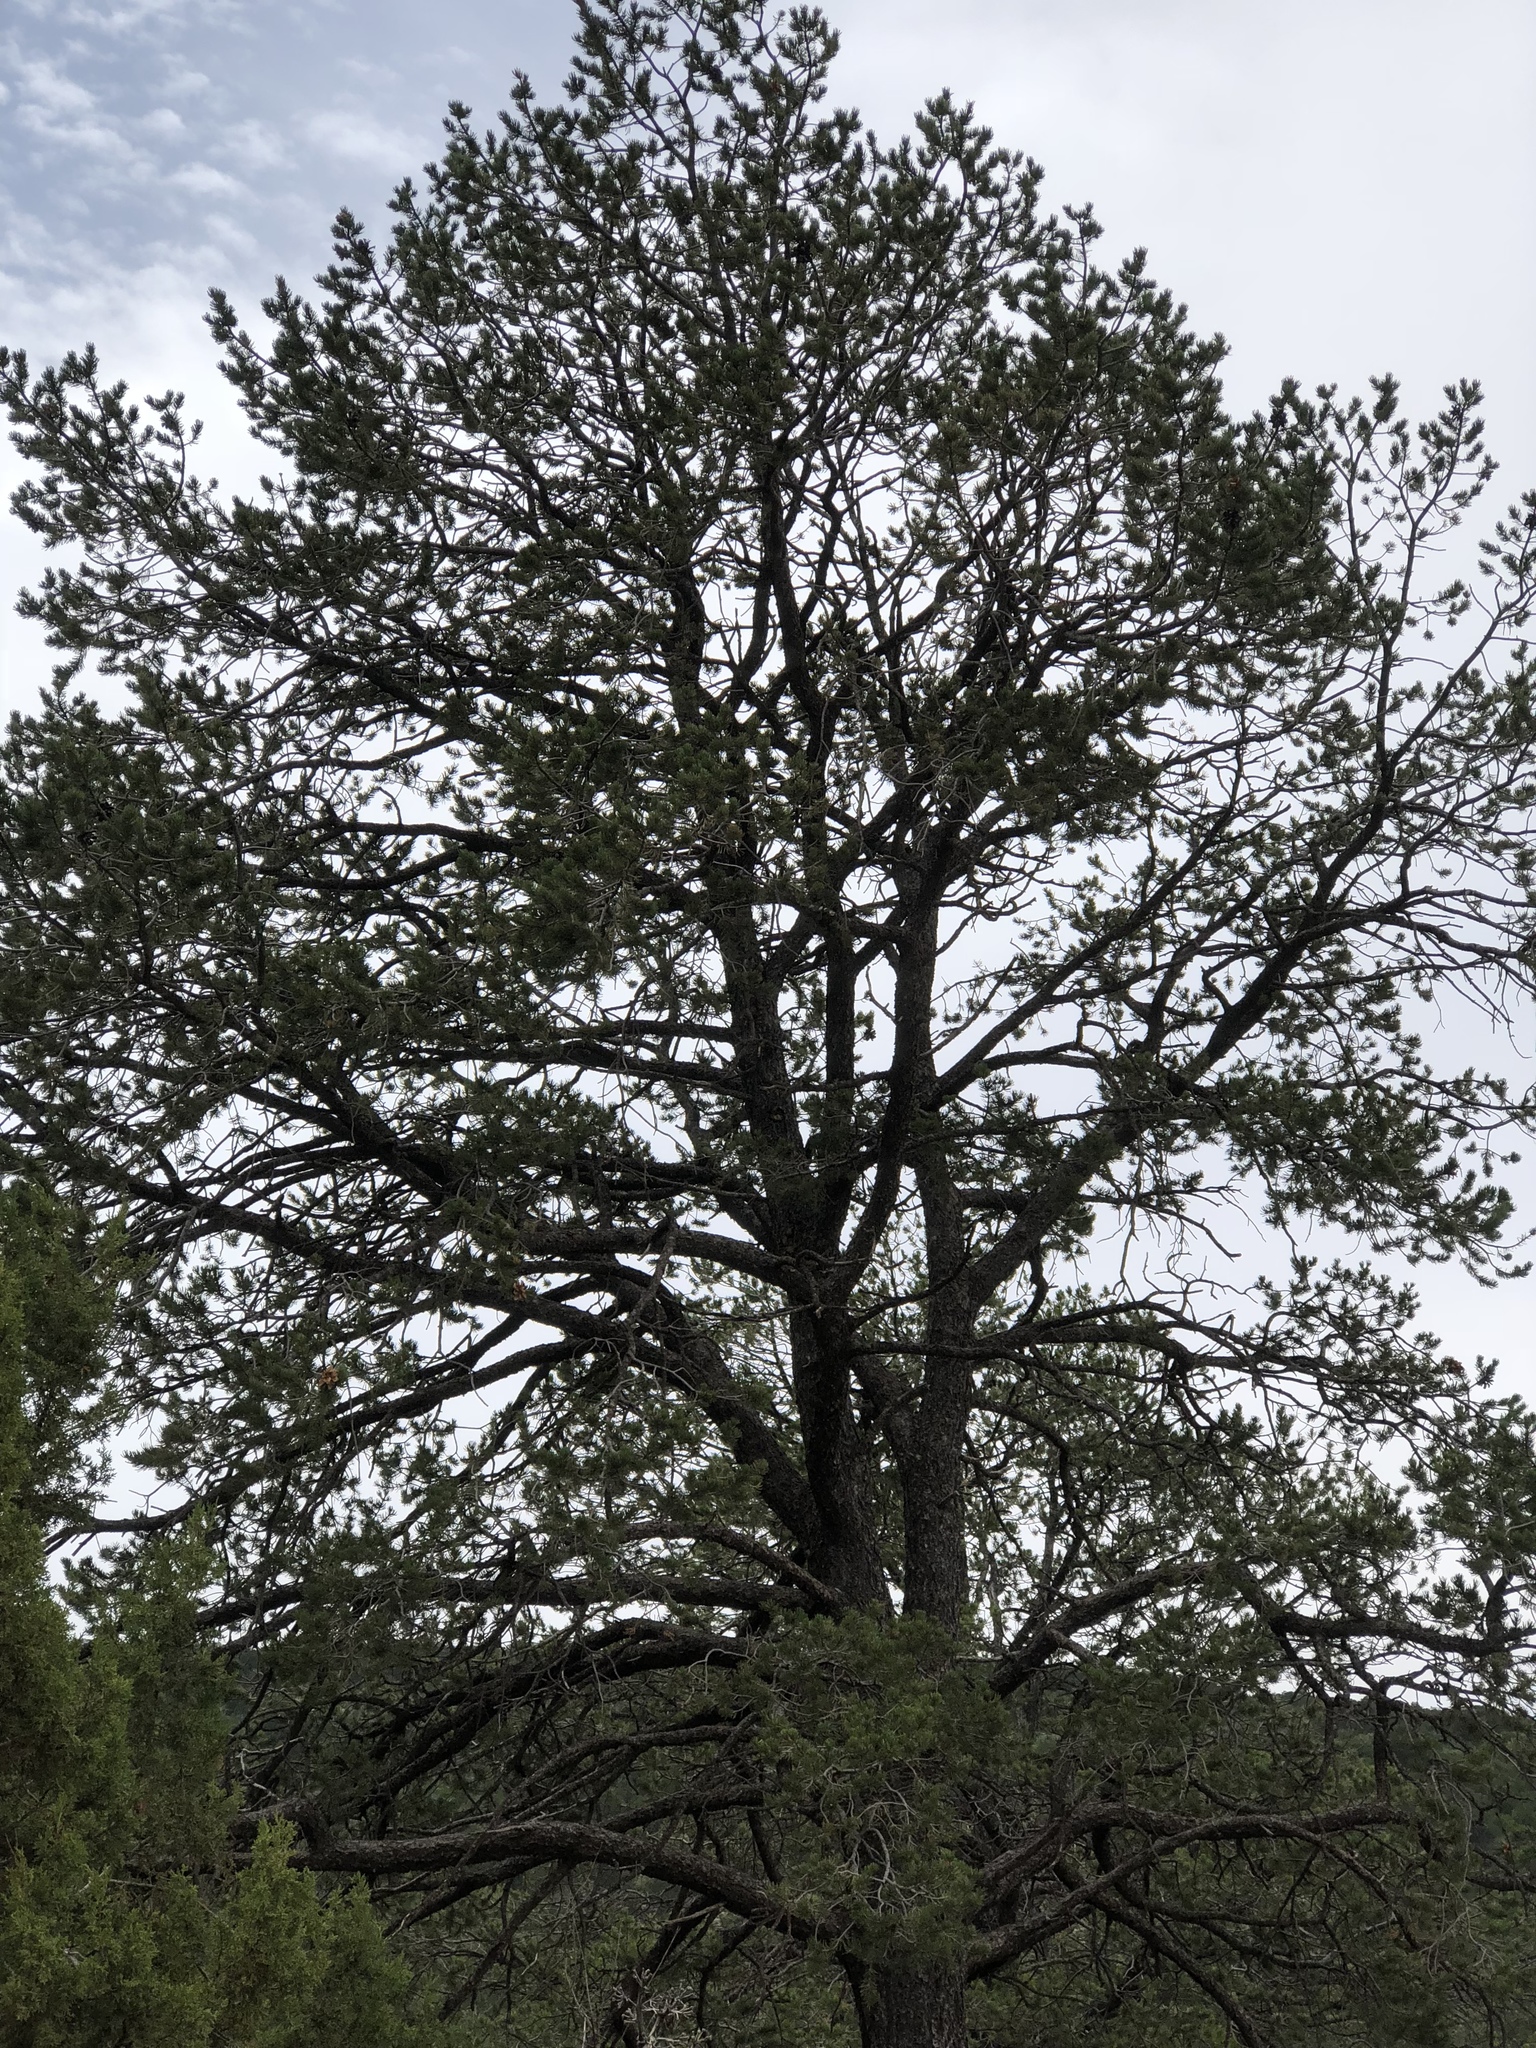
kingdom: Plantae
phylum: Tracheophyta
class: Pinopsida
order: Pinales
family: Pinaceae
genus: Pinus
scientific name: Pinus edulis
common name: Colorado pinyon
